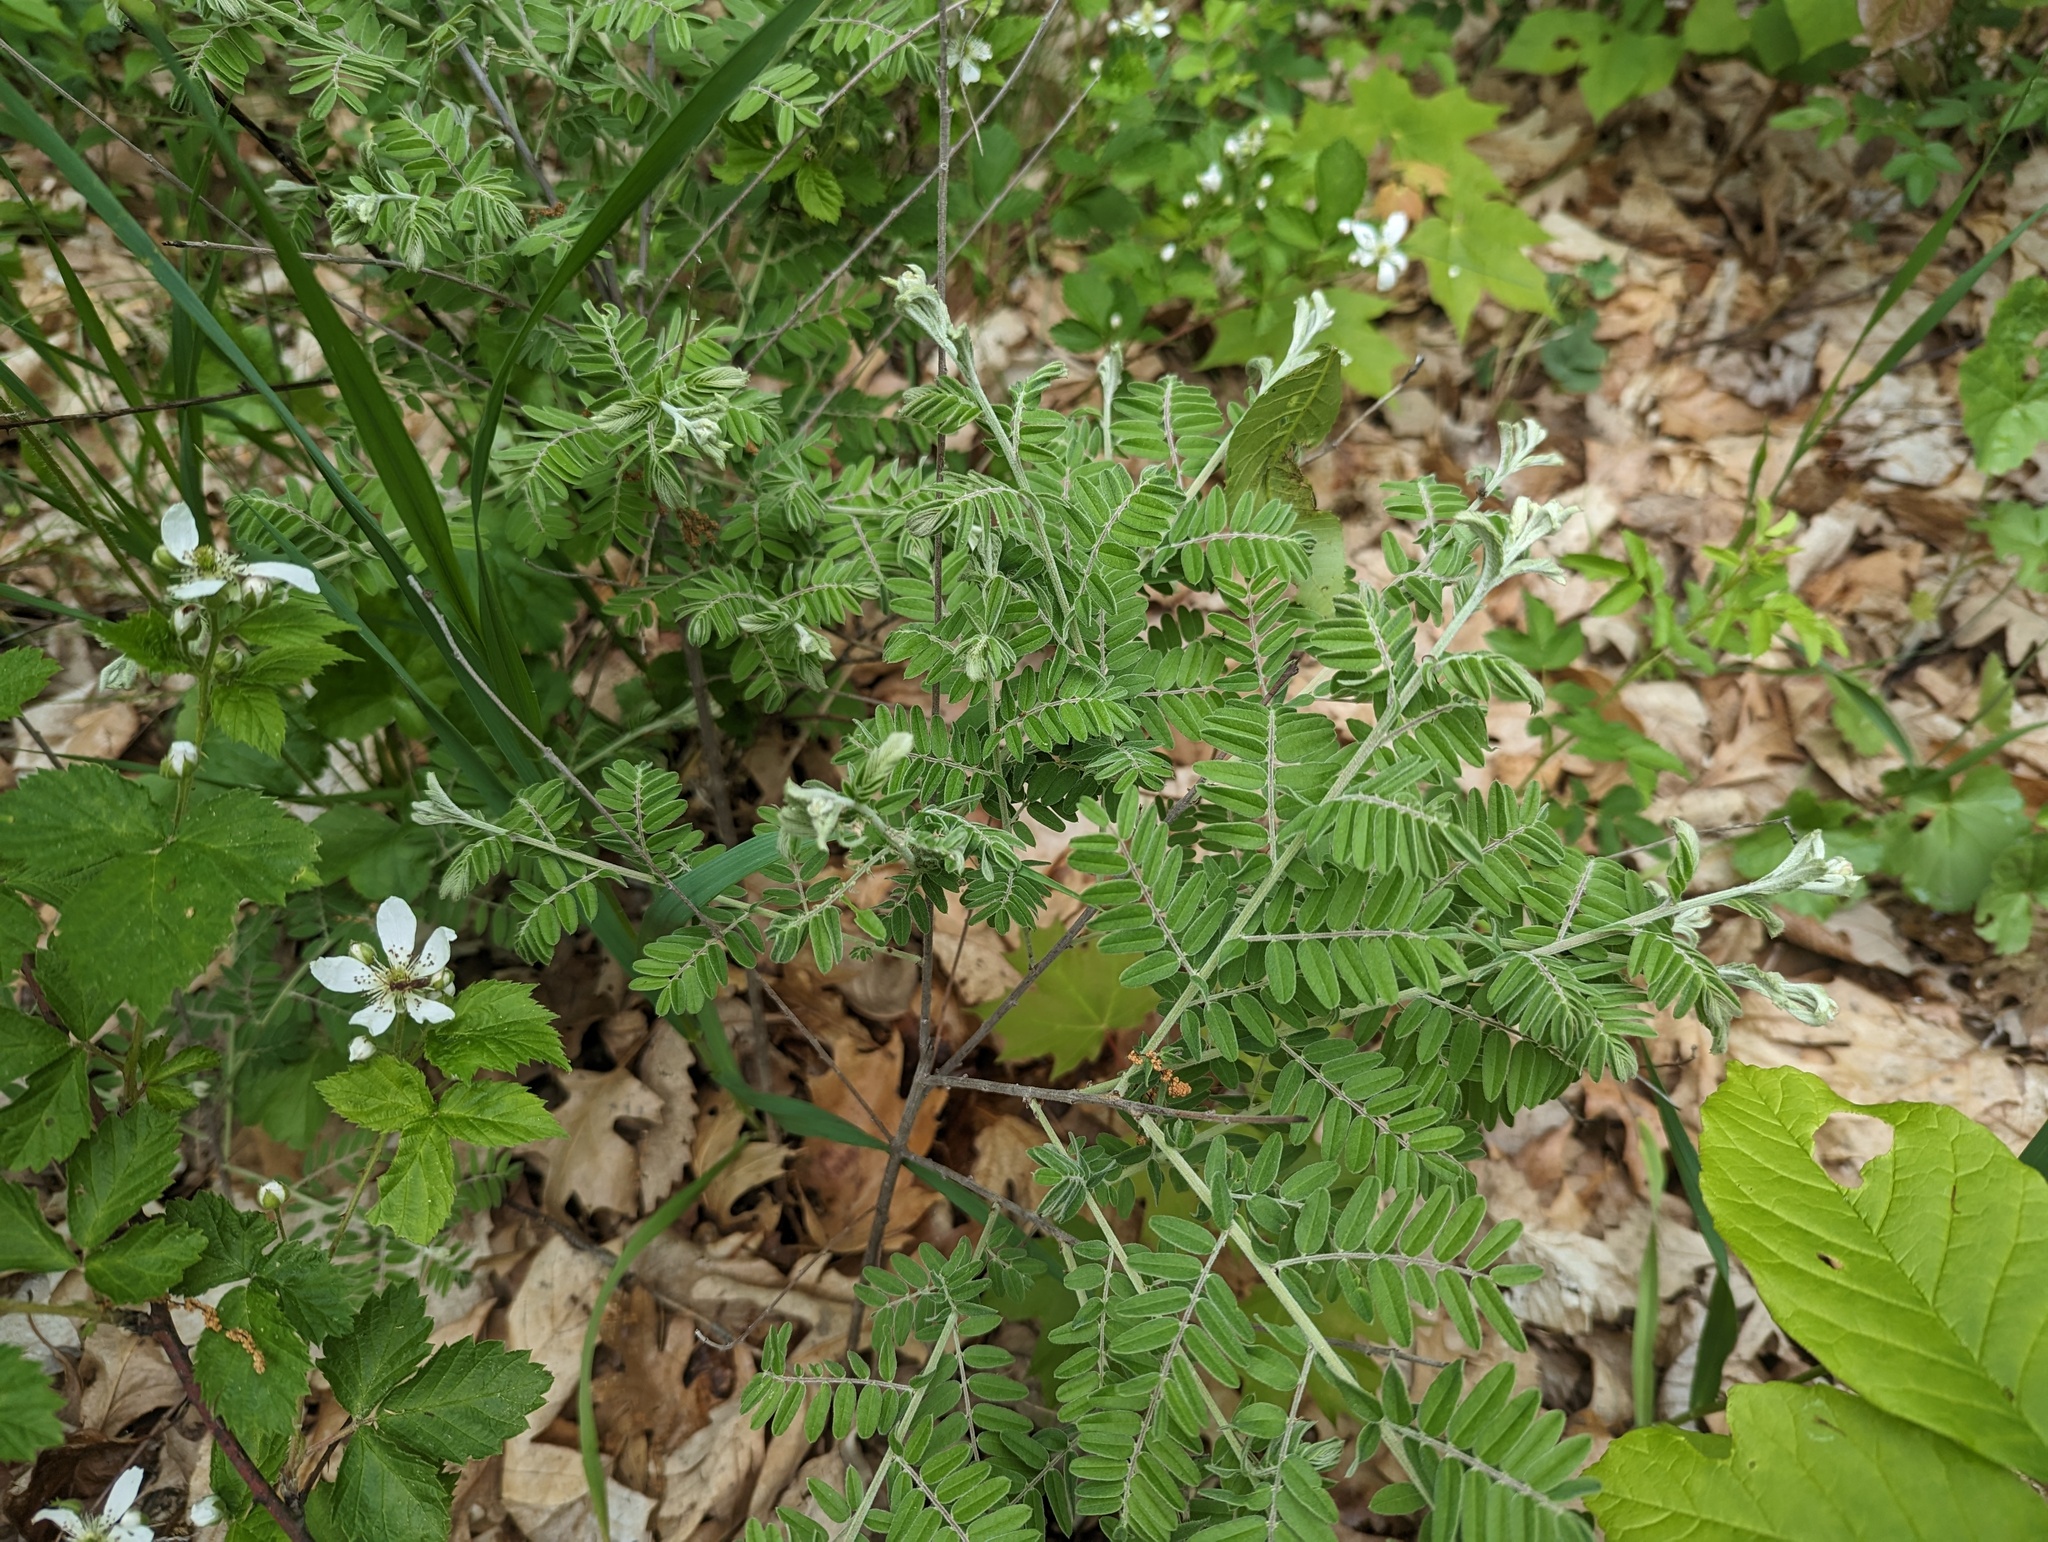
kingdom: Plantae
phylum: Tracheophyta
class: Magnoliopsida
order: Fabales
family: Fabaceae
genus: Amorpha
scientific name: Amorpha canescens
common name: Leadplant
